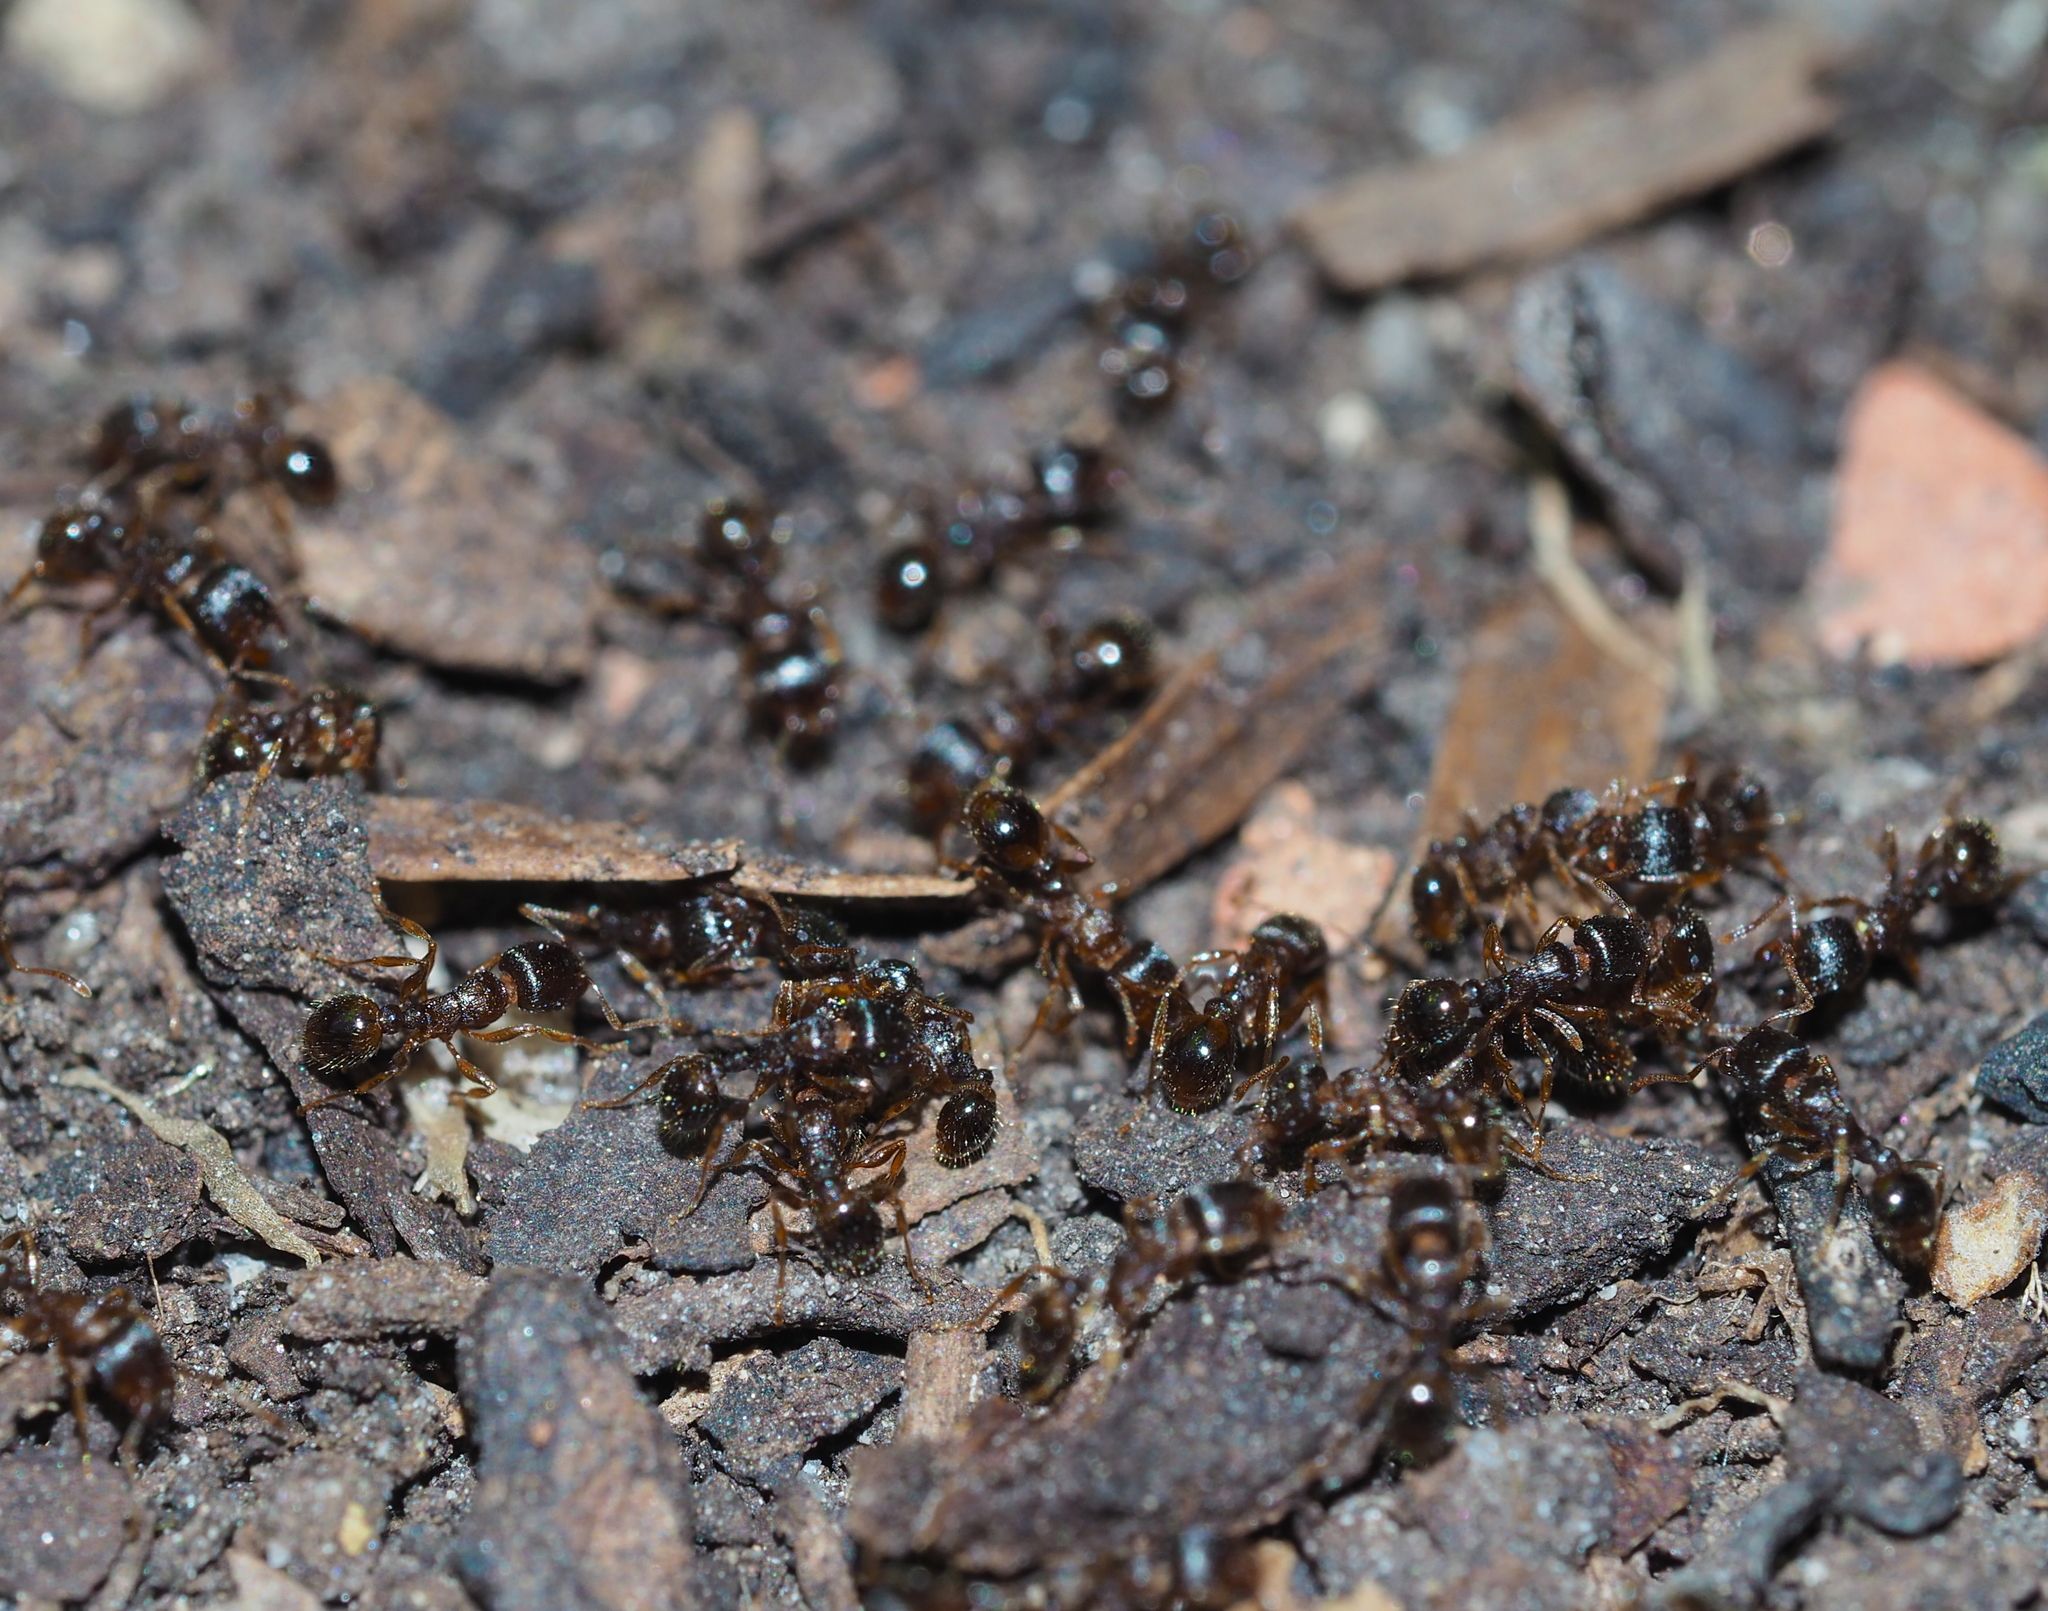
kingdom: Animalia
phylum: Arthropoda
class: Insecta
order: Hymenoptera
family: Formicidae
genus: Tetramorium
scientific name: Tetramorium
